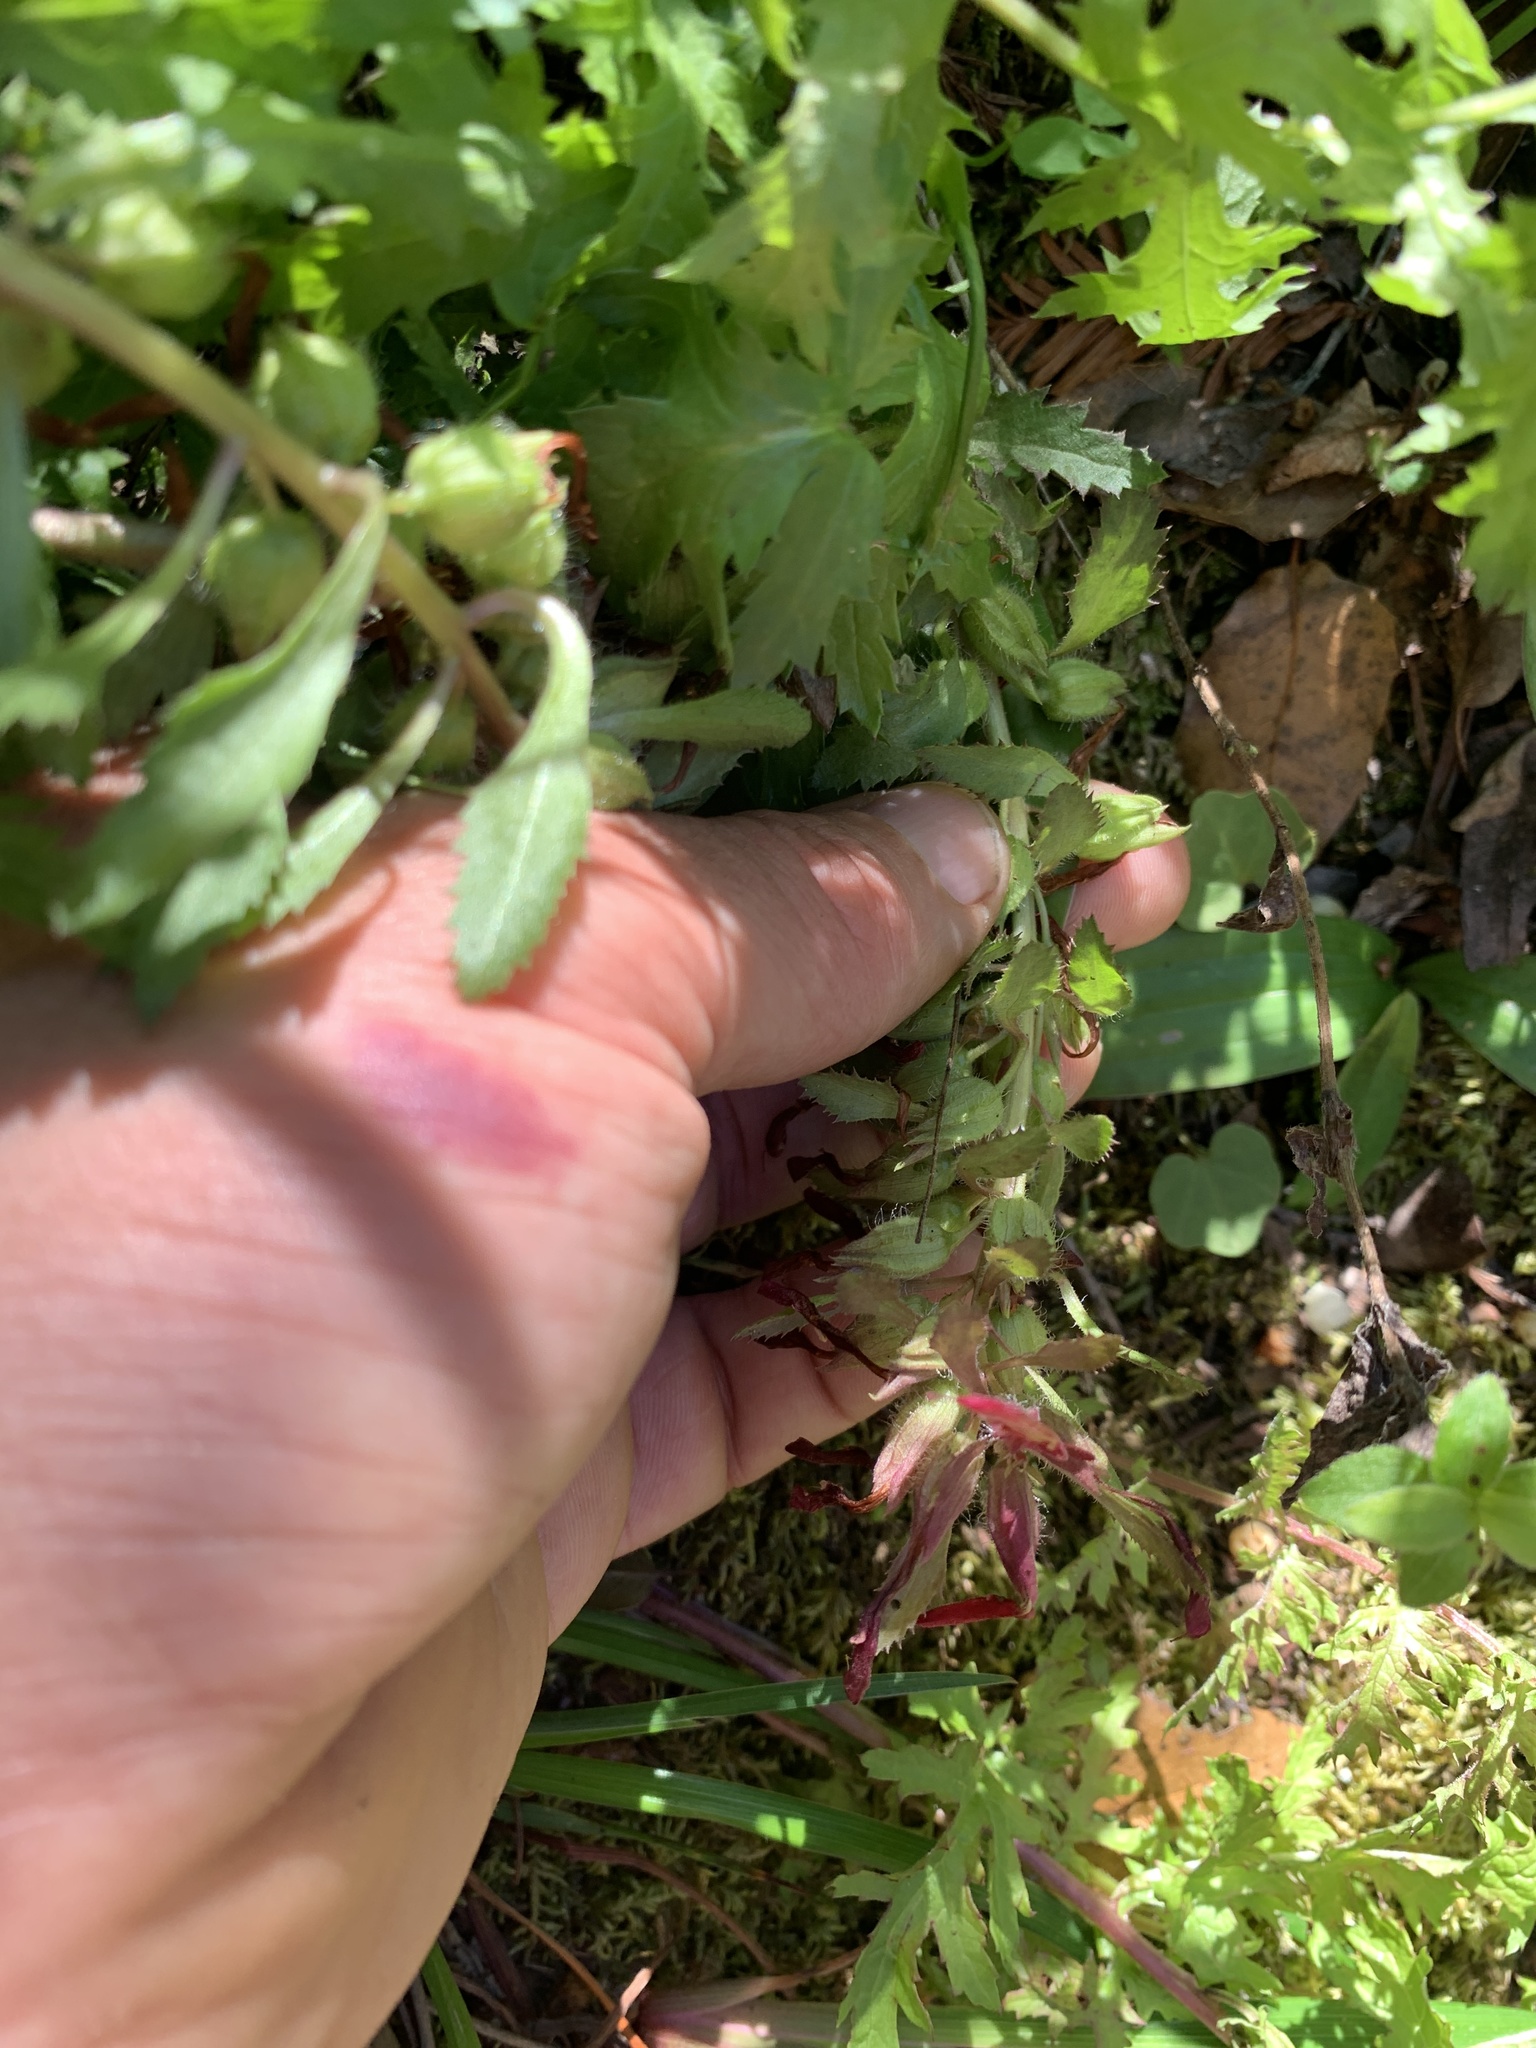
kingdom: Plantae
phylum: Tracheophyta
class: Magnoliopsida
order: Lamiales
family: Orobanchaceae
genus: Pedicularis
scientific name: Pedicularis densiflora
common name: Indian warrior
